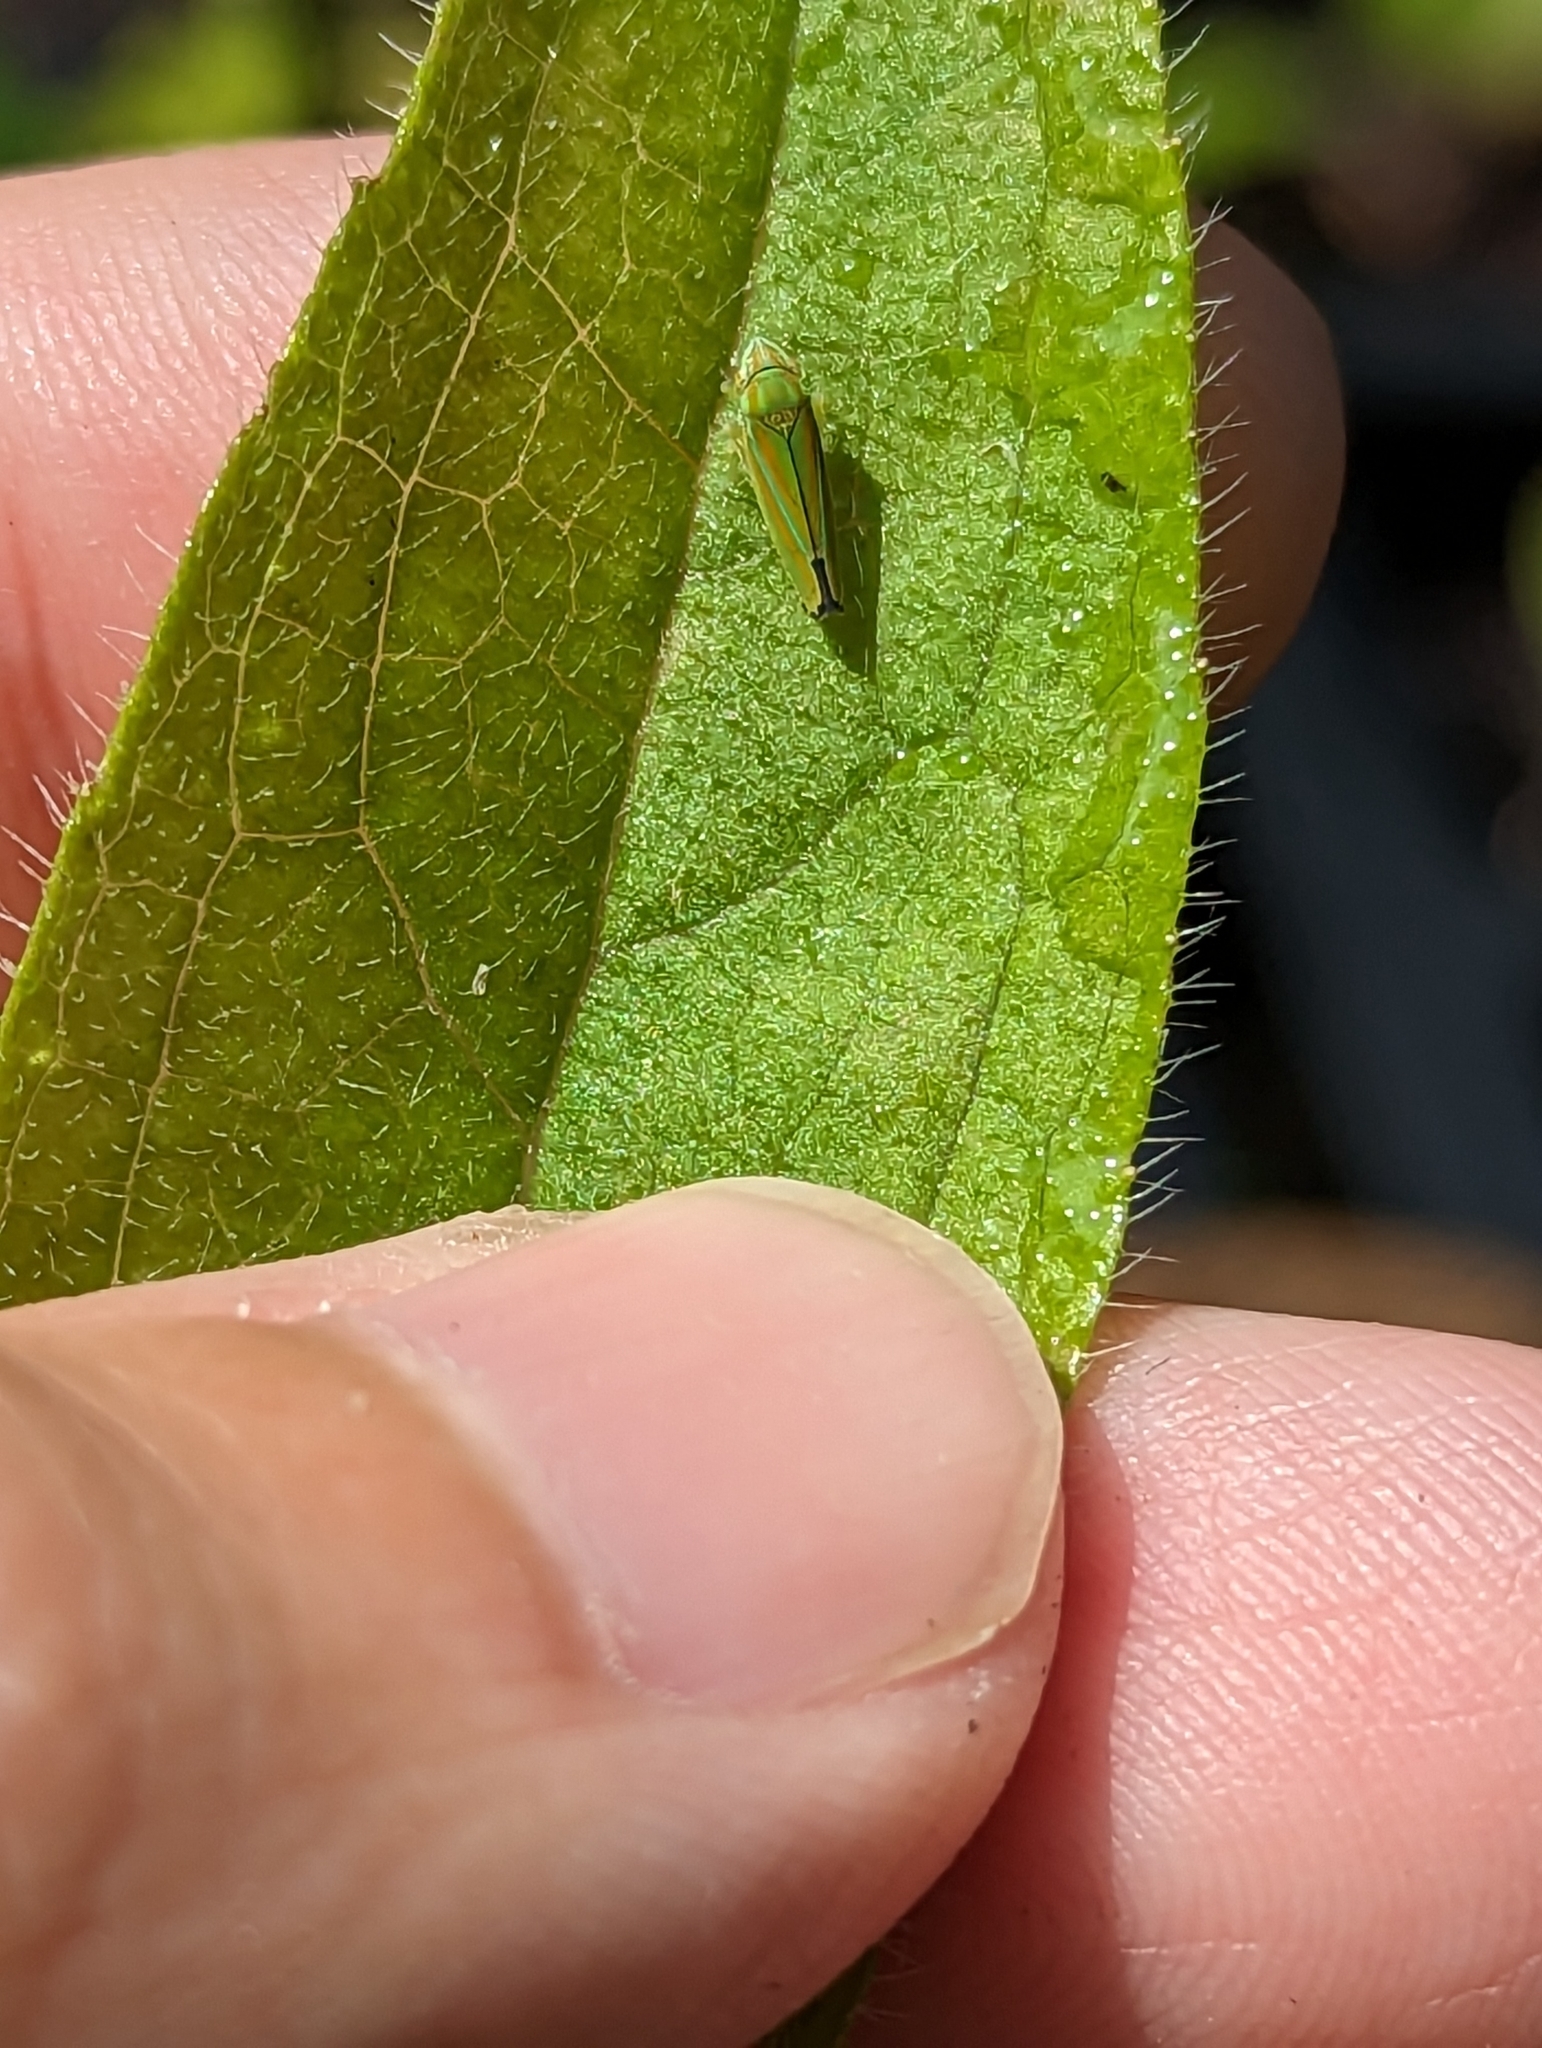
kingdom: Animalia
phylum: Arthropoda
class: Insecta
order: Hemiptera
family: Cicadellidae
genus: Graphocephala
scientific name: Graphocephala versuta
